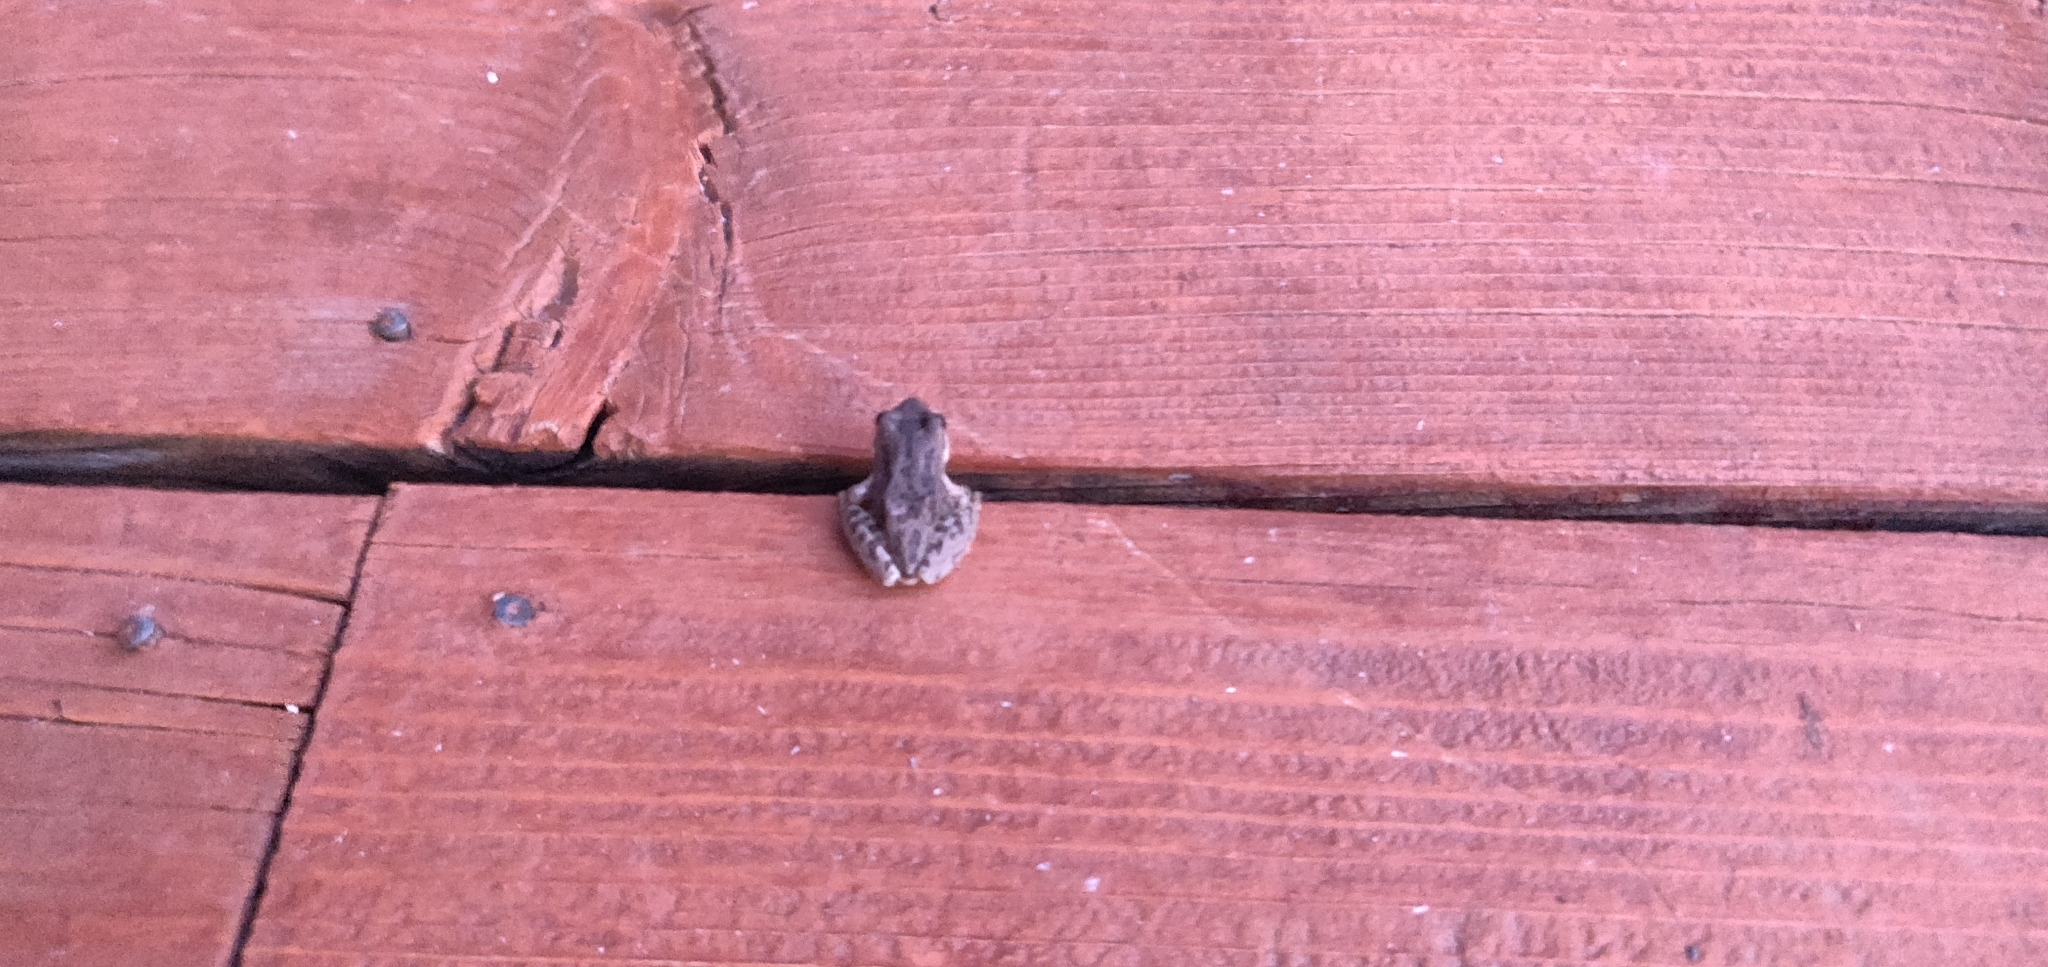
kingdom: Animalia
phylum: Chordata
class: Amphibia
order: Anura
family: Hylidae
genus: Pseudacris
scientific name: Pseudacris regilla
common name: Pacific chorus frog
